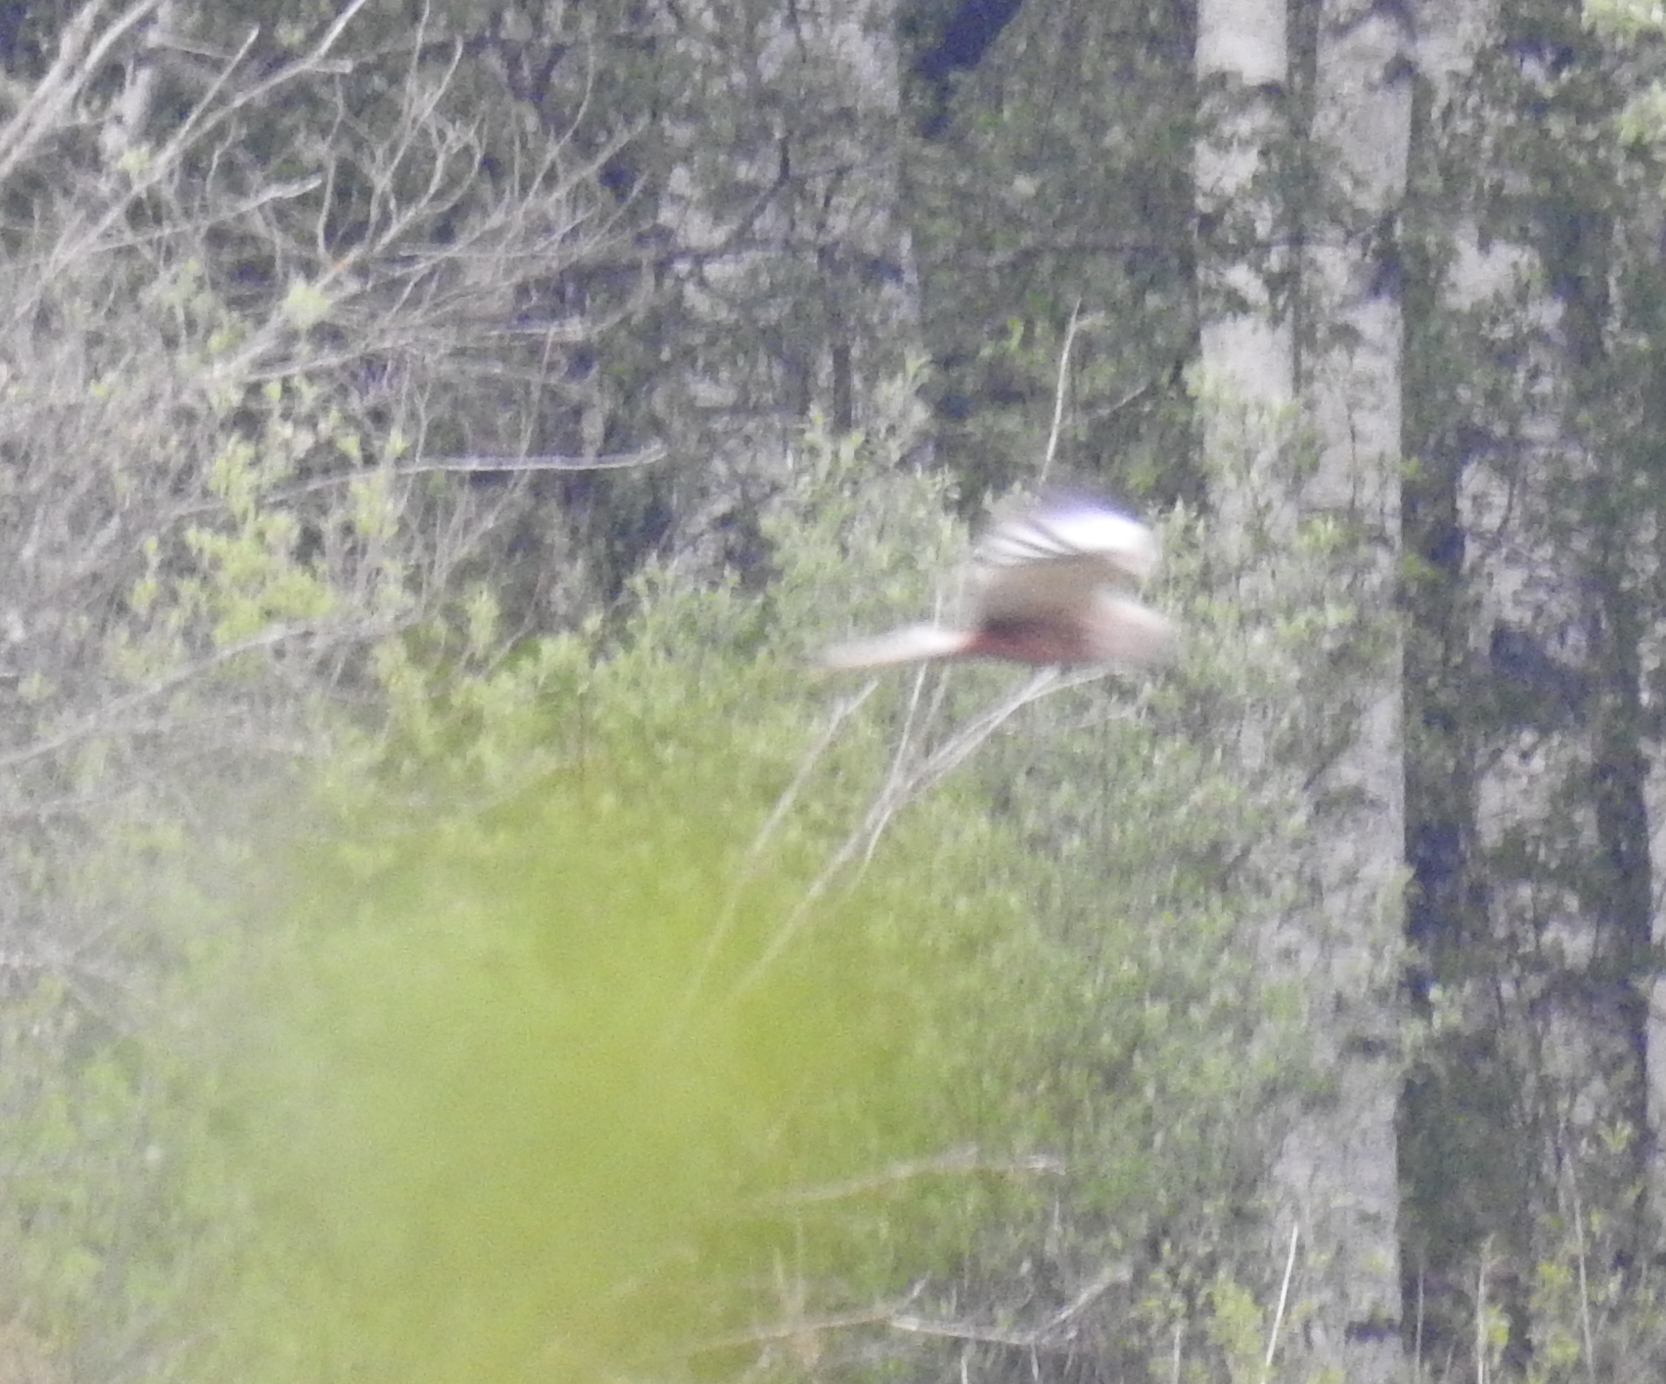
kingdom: Animalia
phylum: Chordata
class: Aves
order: Accipitriformes
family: Accipitridae
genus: Circus
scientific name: Circus aeruginosus
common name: Western marsh harrier
